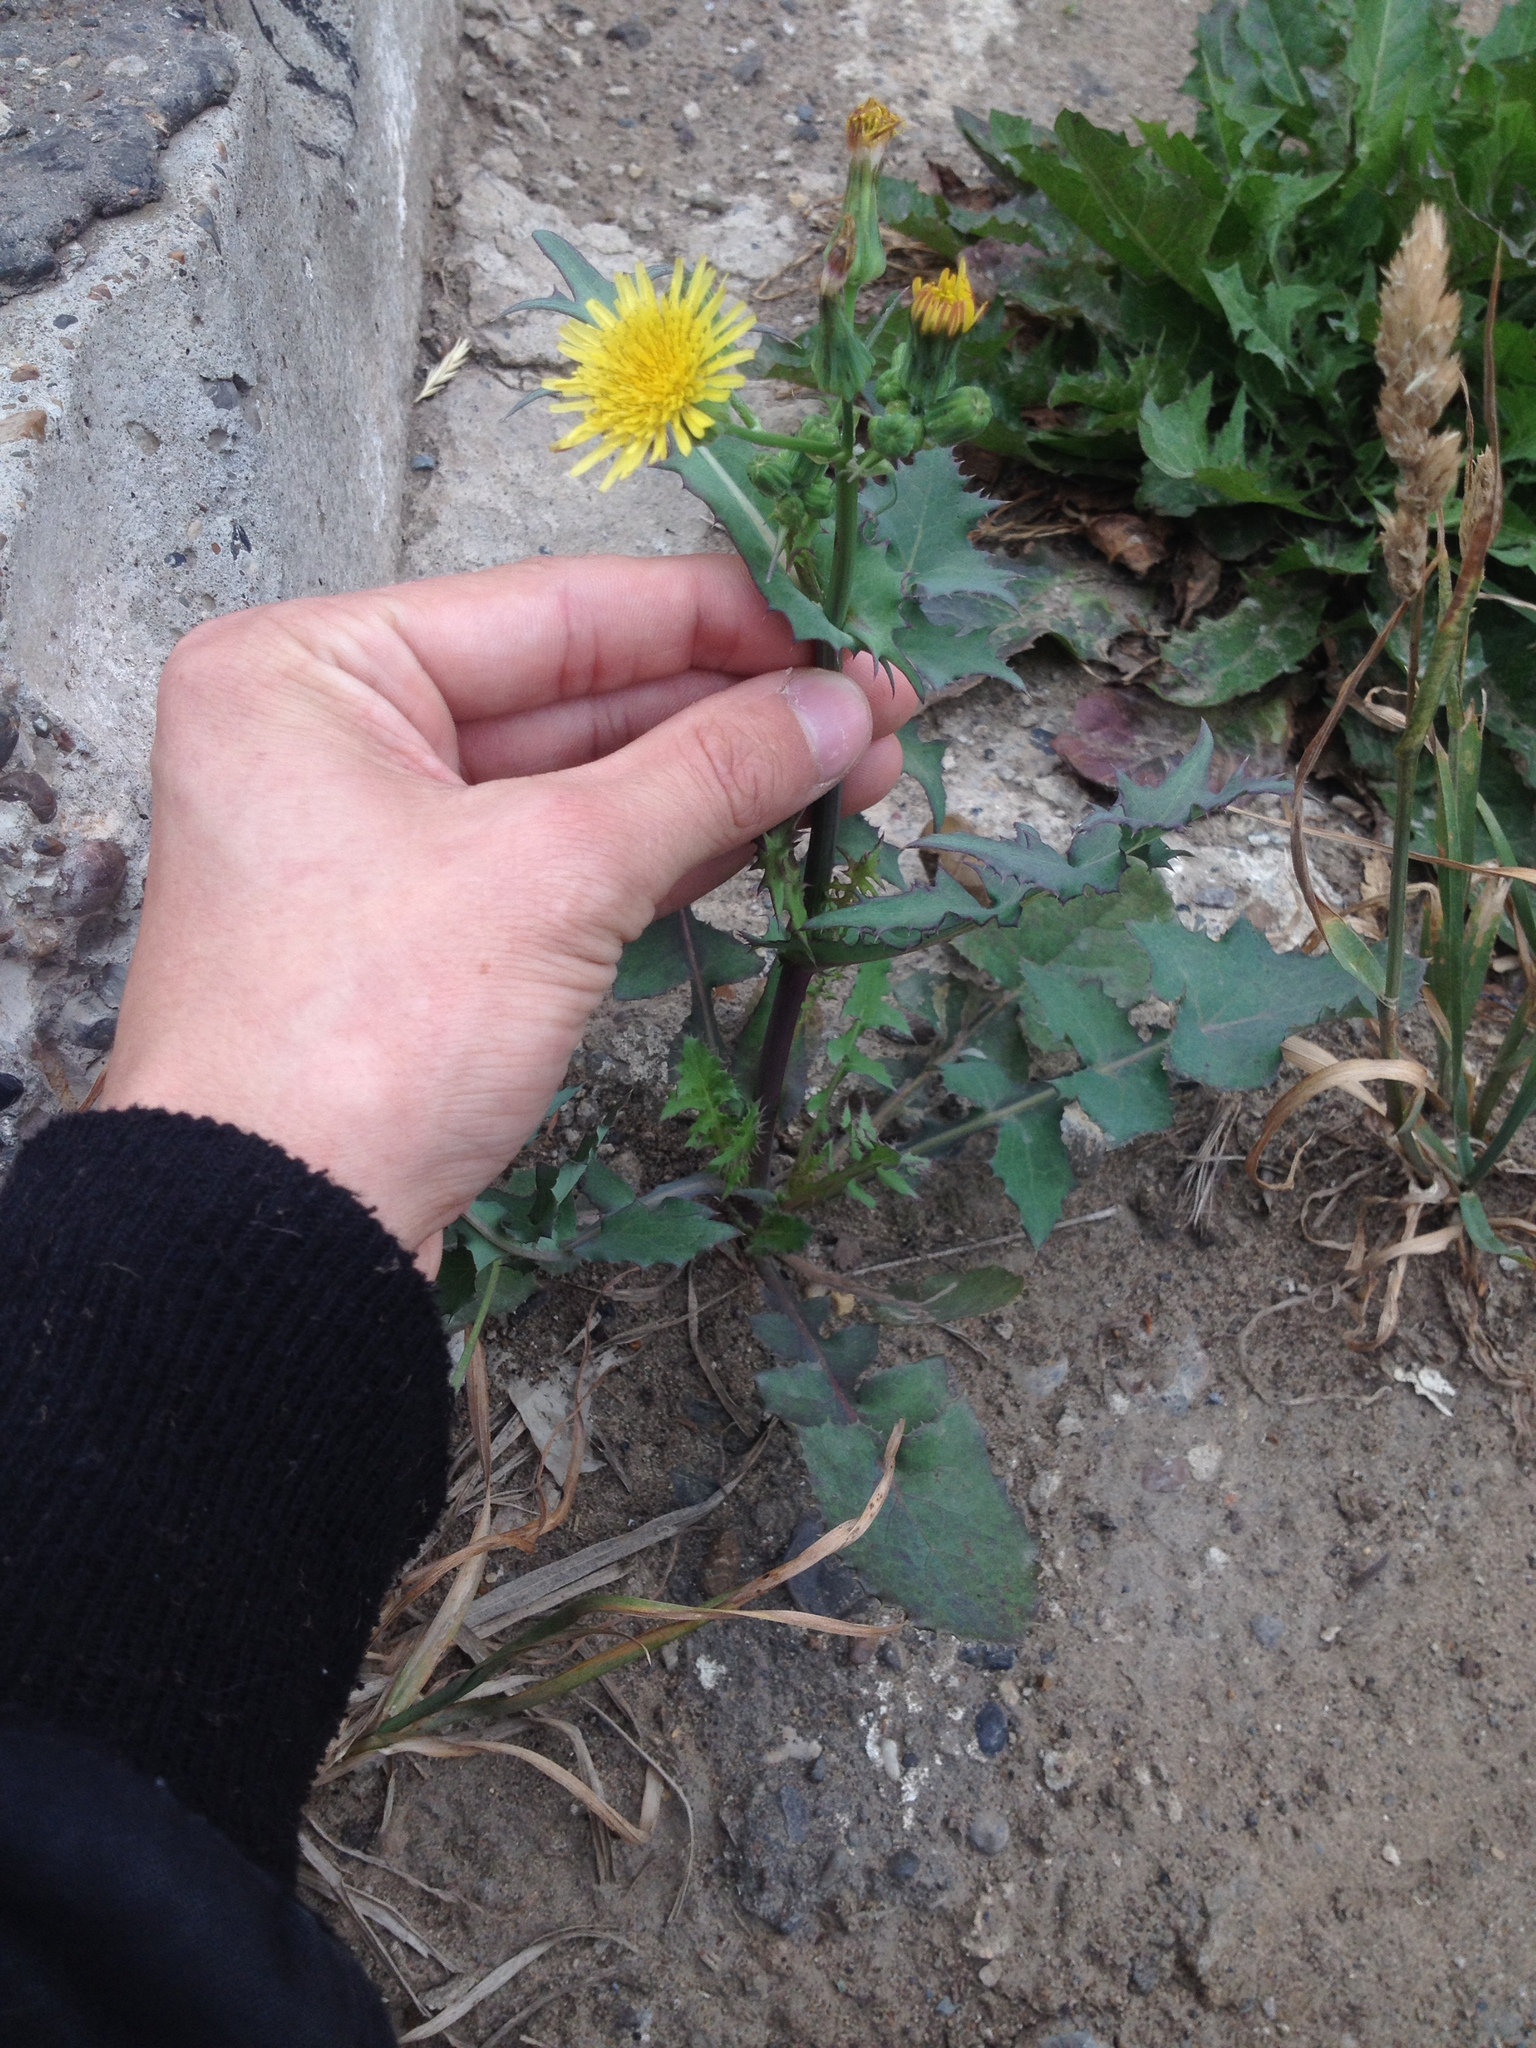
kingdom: Plantae
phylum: Tracheophyta
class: Magnoliopsida
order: Asterales
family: Asteraceae
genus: Sonchus
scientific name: Sonchus oleraceus
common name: Common sowthistle
